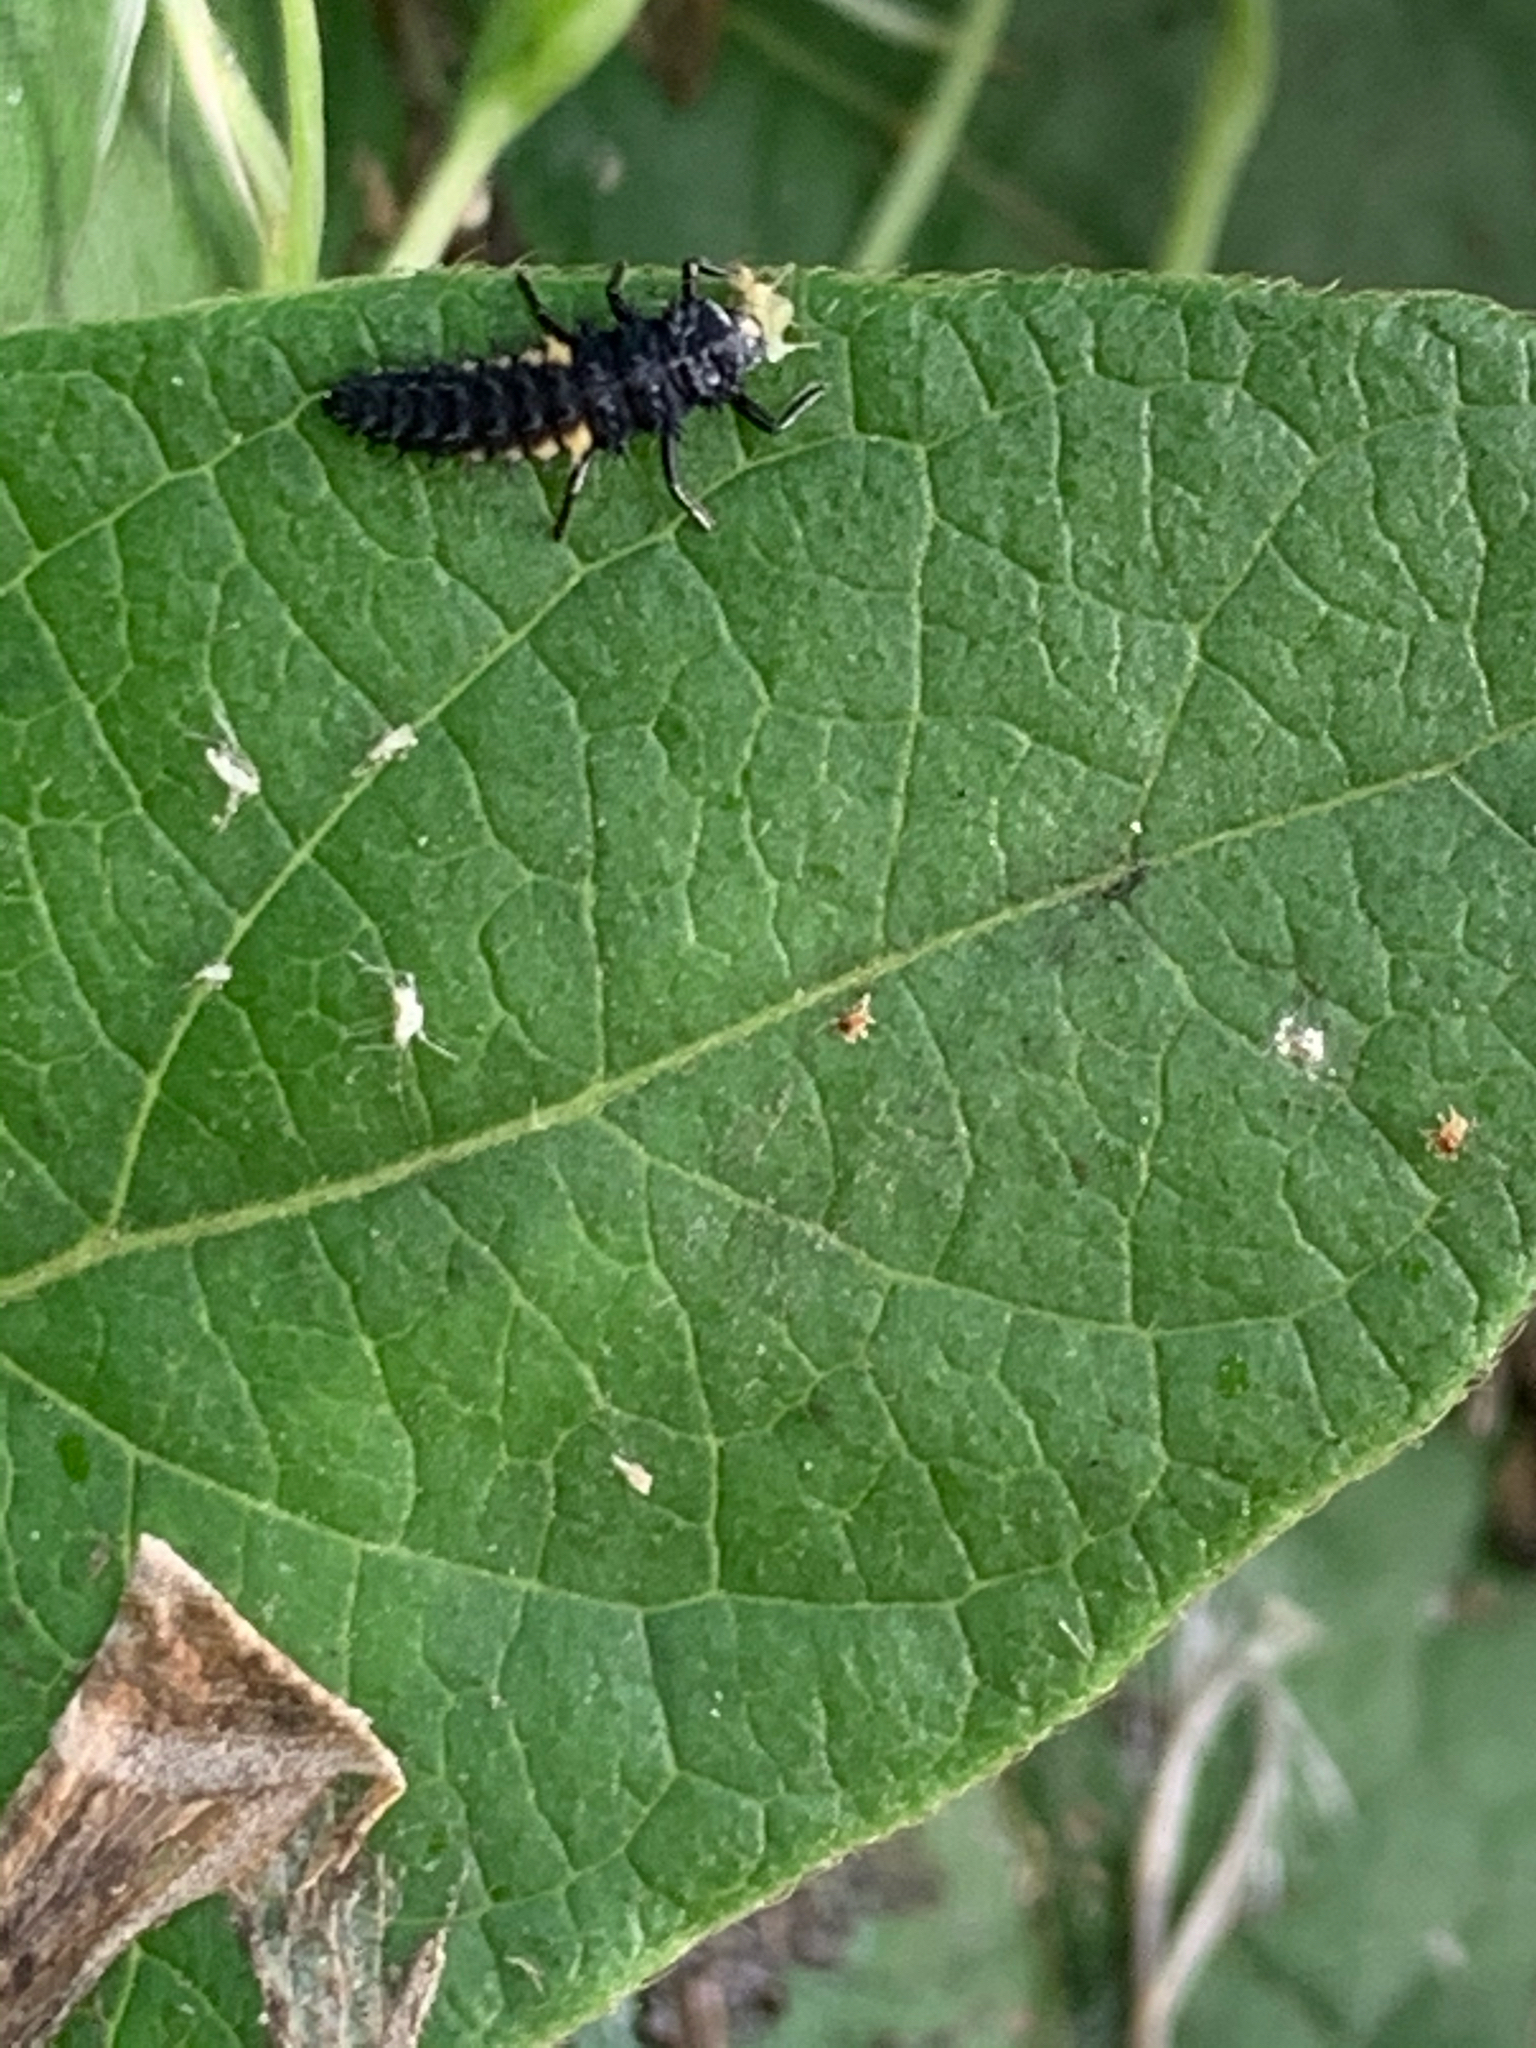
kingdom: Animalia
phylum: Arthropoda
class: Insecta
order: Coleoptera
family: Coccinellidae
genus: Harmonia
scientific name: Harmonia axyridis
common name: Harlequin ladybird
